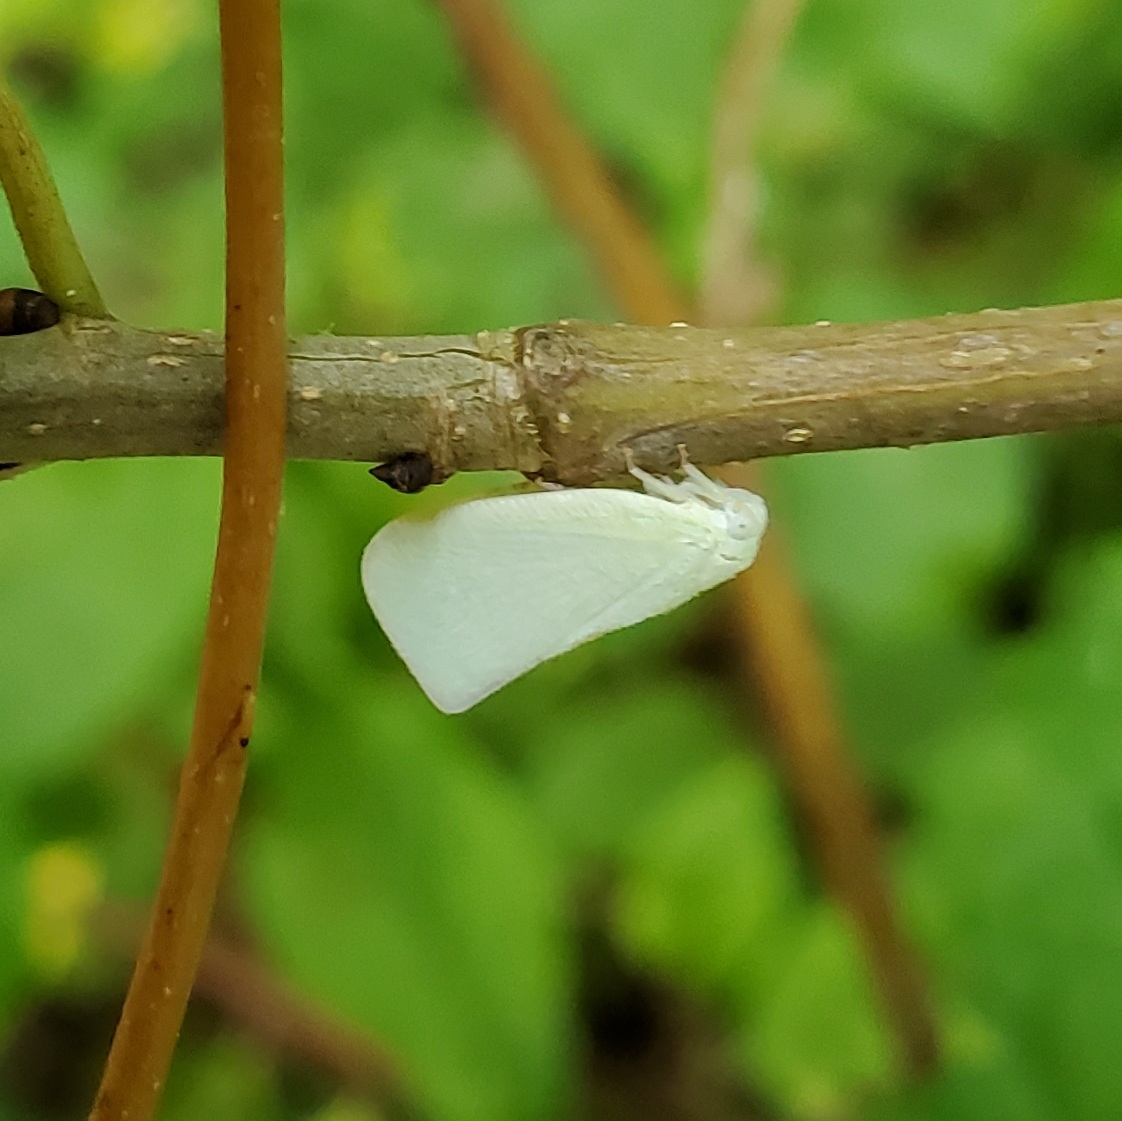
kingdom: Animalia
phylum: Arthropoda
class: Insecta
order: Hemiptera
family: Flatidae
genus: Flatormenis
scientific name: Flatormenis proxima
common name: Northern flatid planthopper
